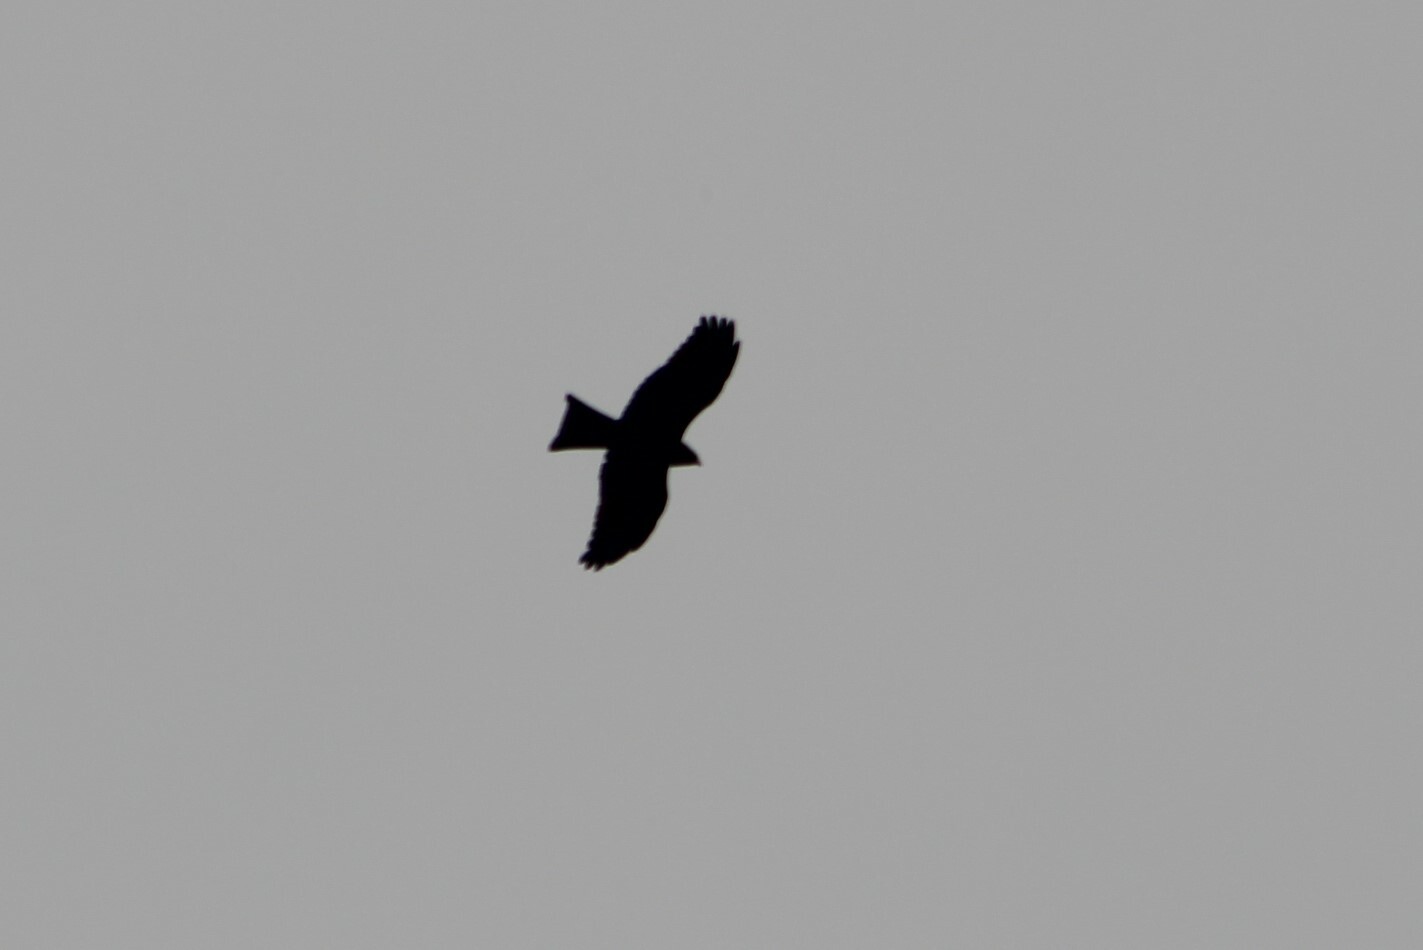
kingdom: Animalia
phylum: Chordata
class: Aves
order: Accipitriformes
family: Accipitridae
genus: Milvus
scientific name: Milvus migrans
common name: Black kite
